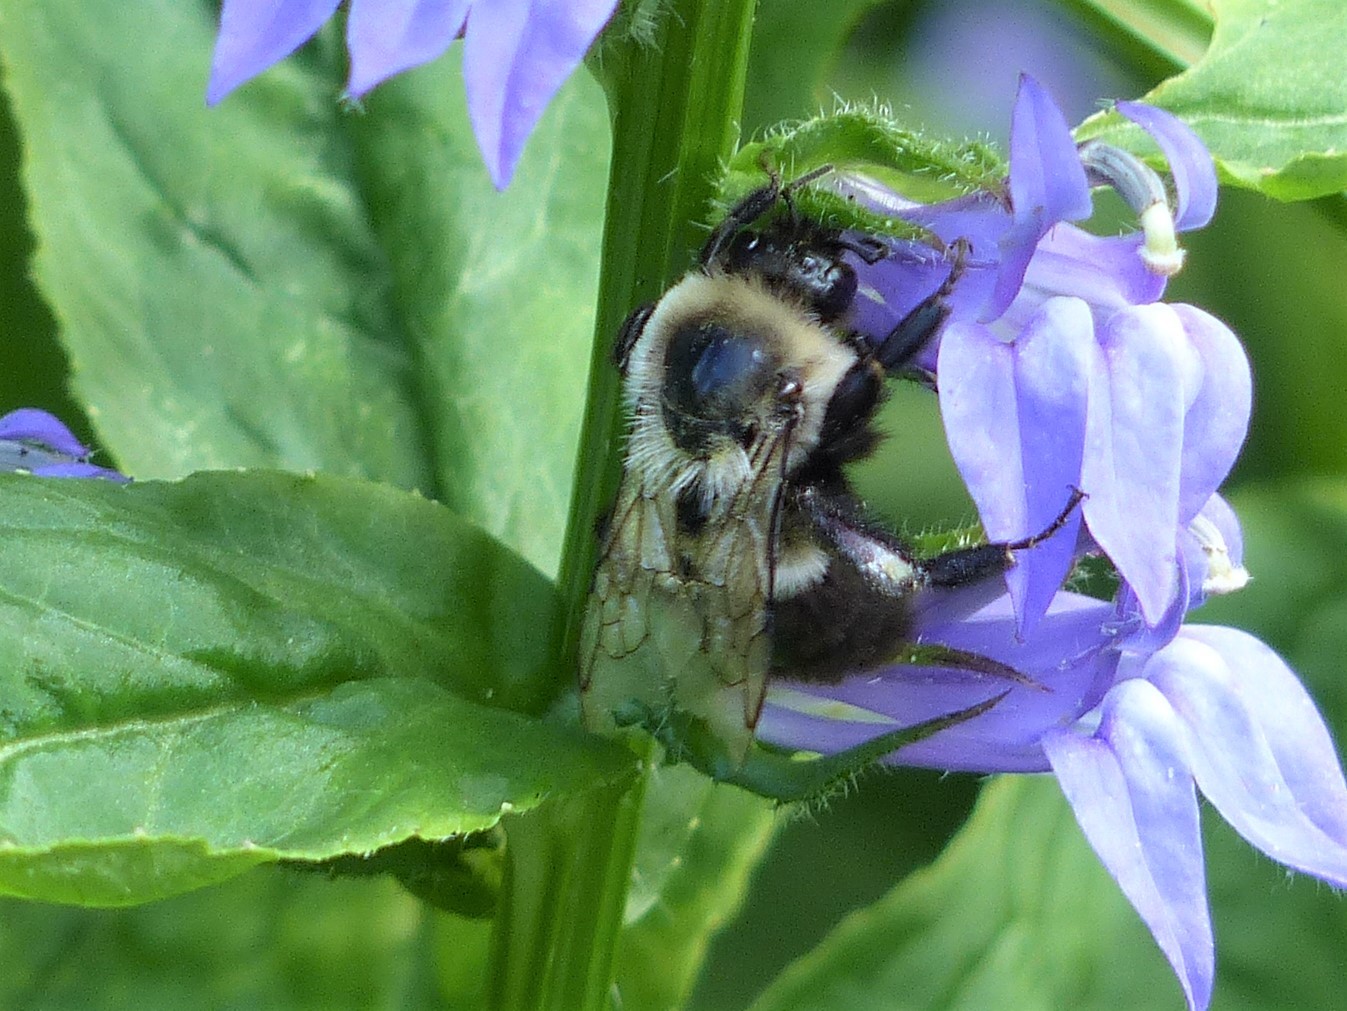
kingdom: Animalia
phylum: Arthropoda
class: Insecta
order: Hymenoptera
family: Apidae
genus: Bombus
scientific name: Bombus impatiens
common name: Common eastern bumble bee
